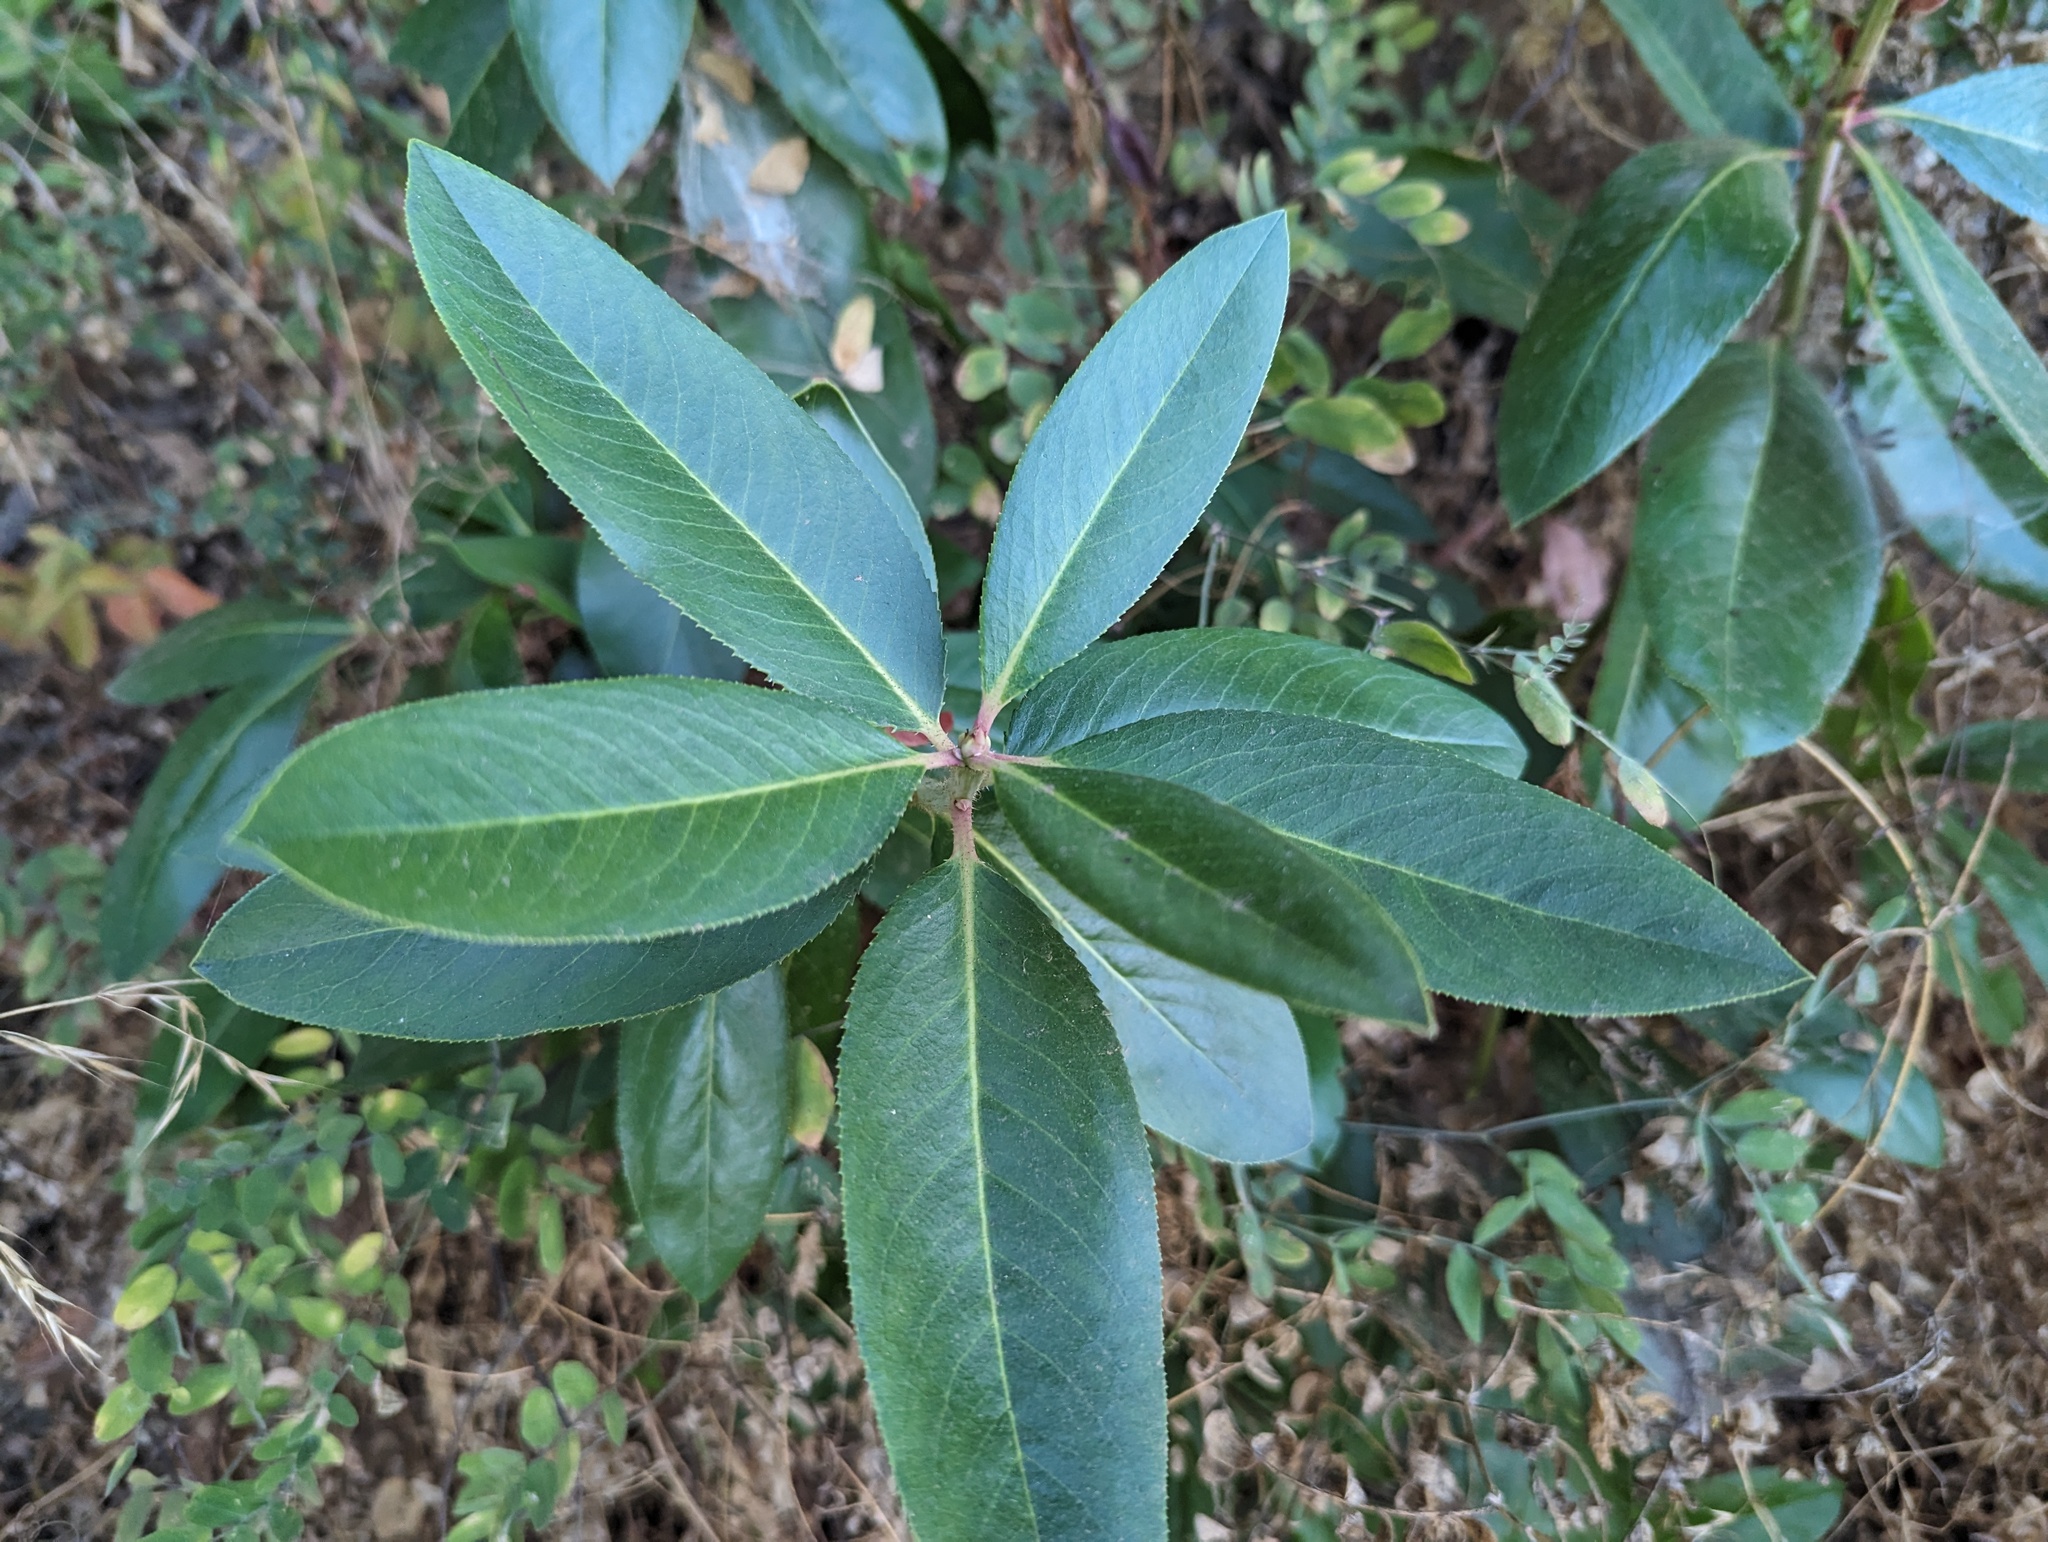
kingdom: Plantae
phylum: Tracheophyta
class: Magnoliopsida
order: Ericales
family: Ericaceae
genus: Arbutus
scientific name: Arbutus menziesii
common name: Pacific madrone
